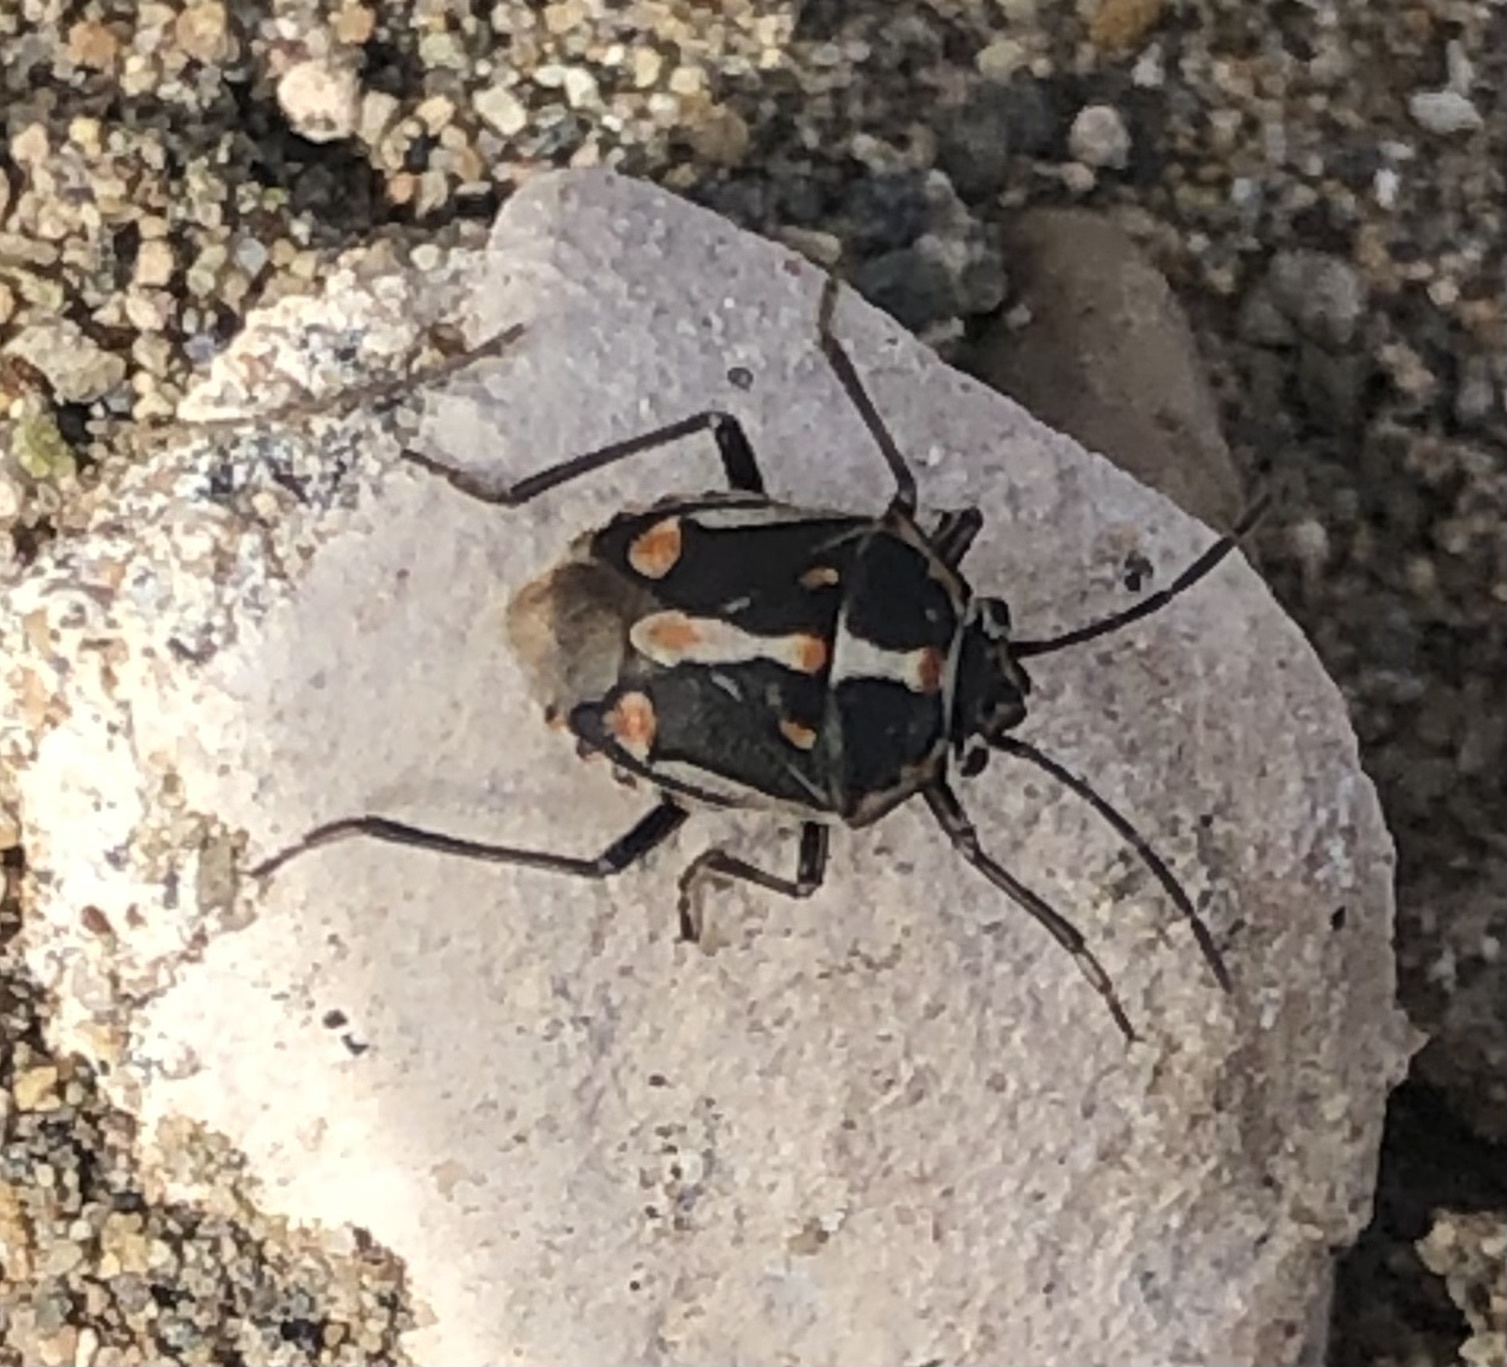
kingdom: Animalia
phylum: Arthropoda
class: Insecta
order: Hemiptera
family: Pentatomidae
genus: Bagrada
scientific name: Bagrada hilaris
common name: Bagrada bug
